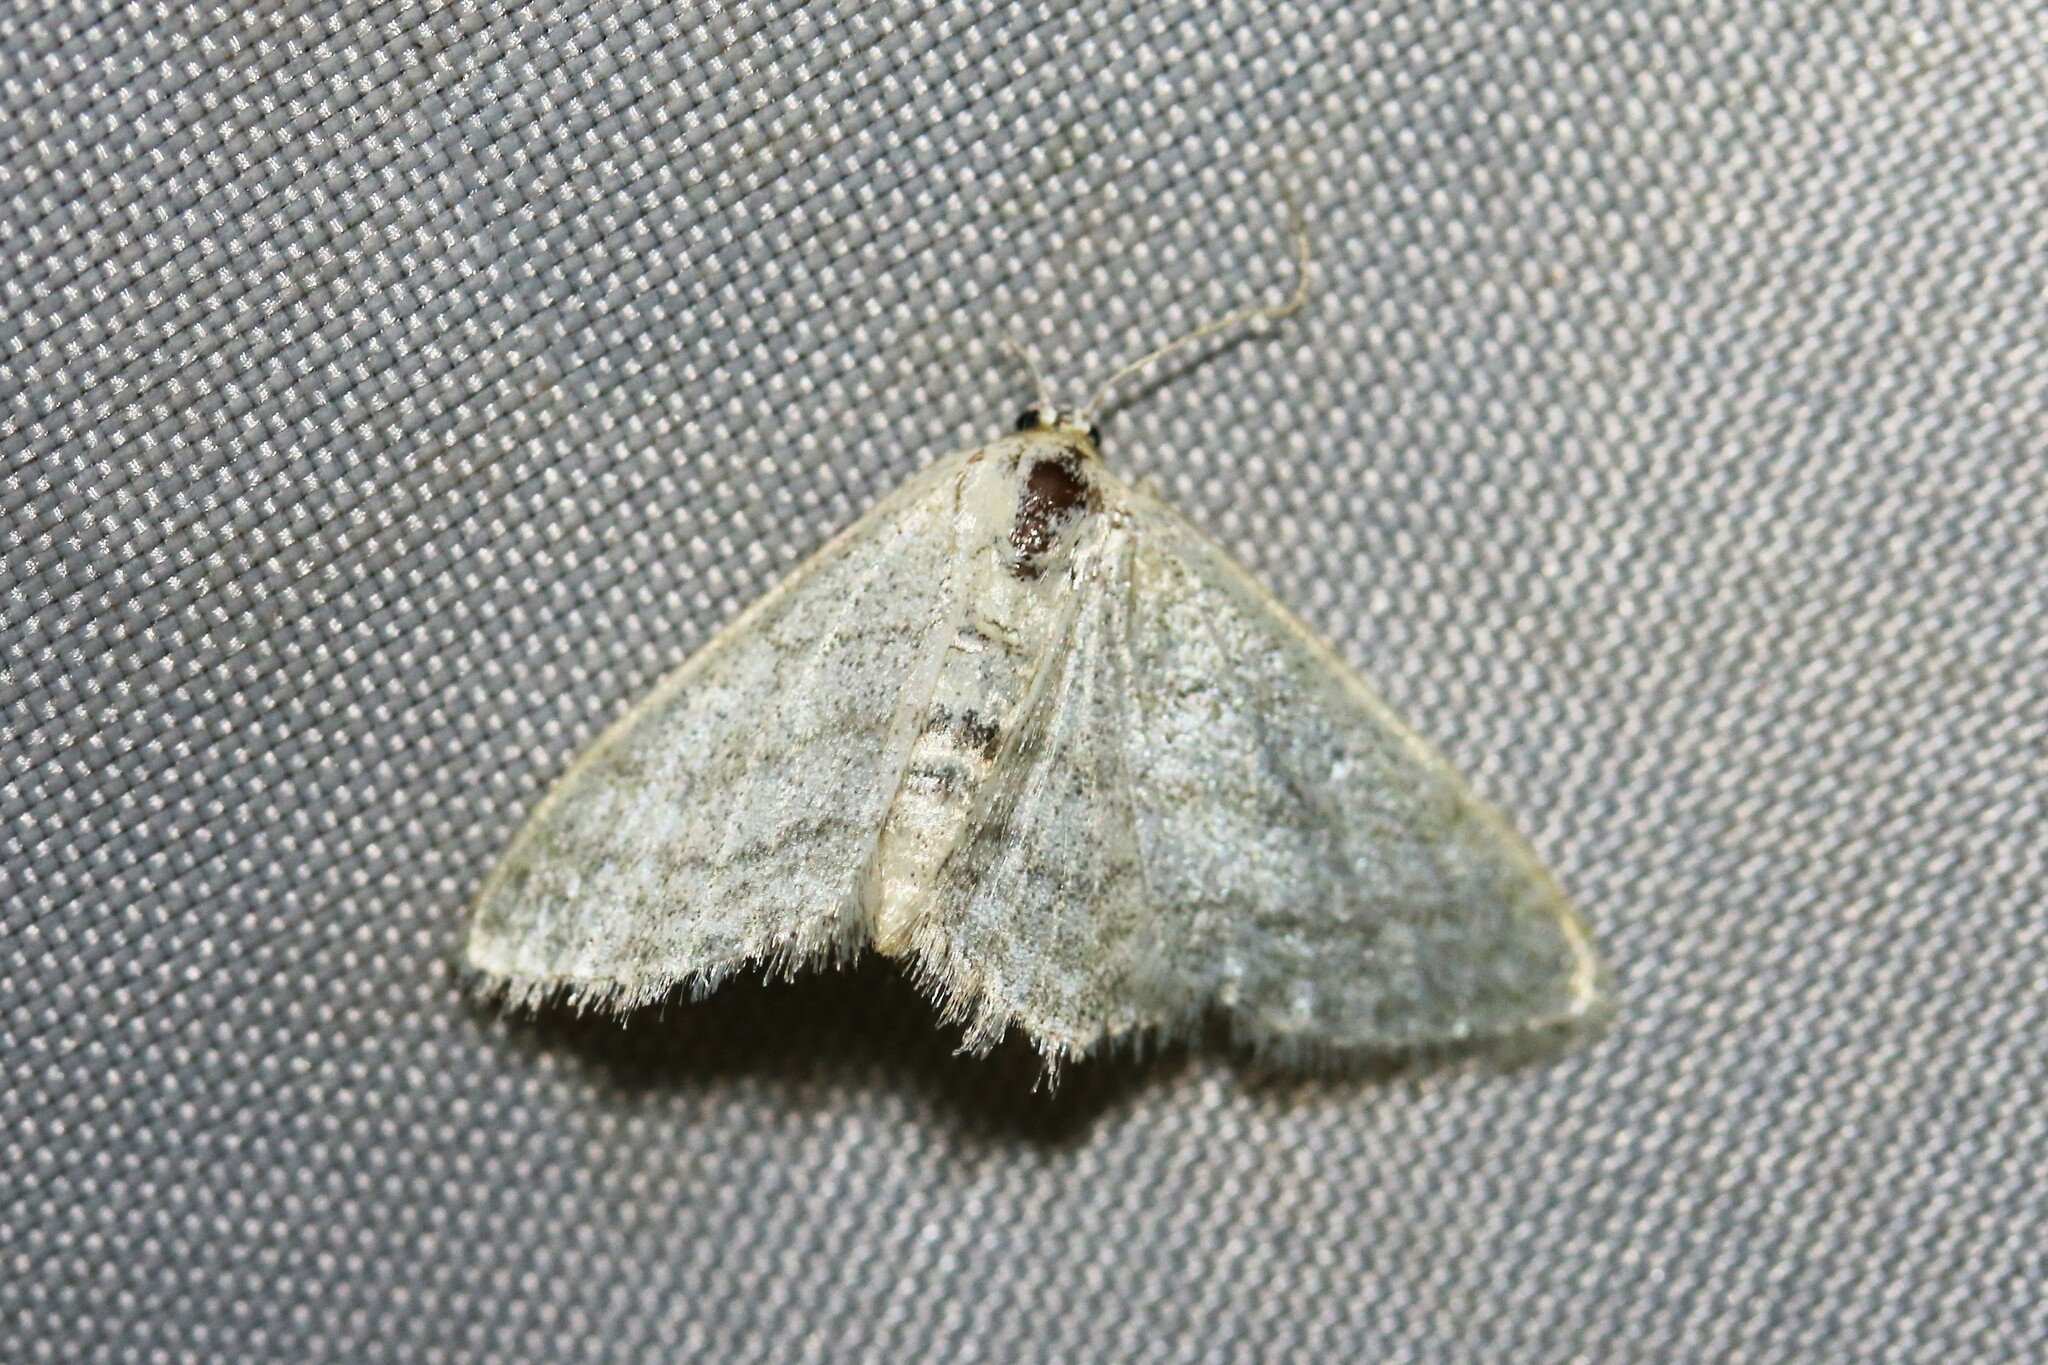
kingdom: Animalia
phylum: Arthropoda
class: Insecta
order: Lepidoptera
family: Geometridae
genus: Idaea
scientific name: Idaea subsericeata
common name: Satin wave
